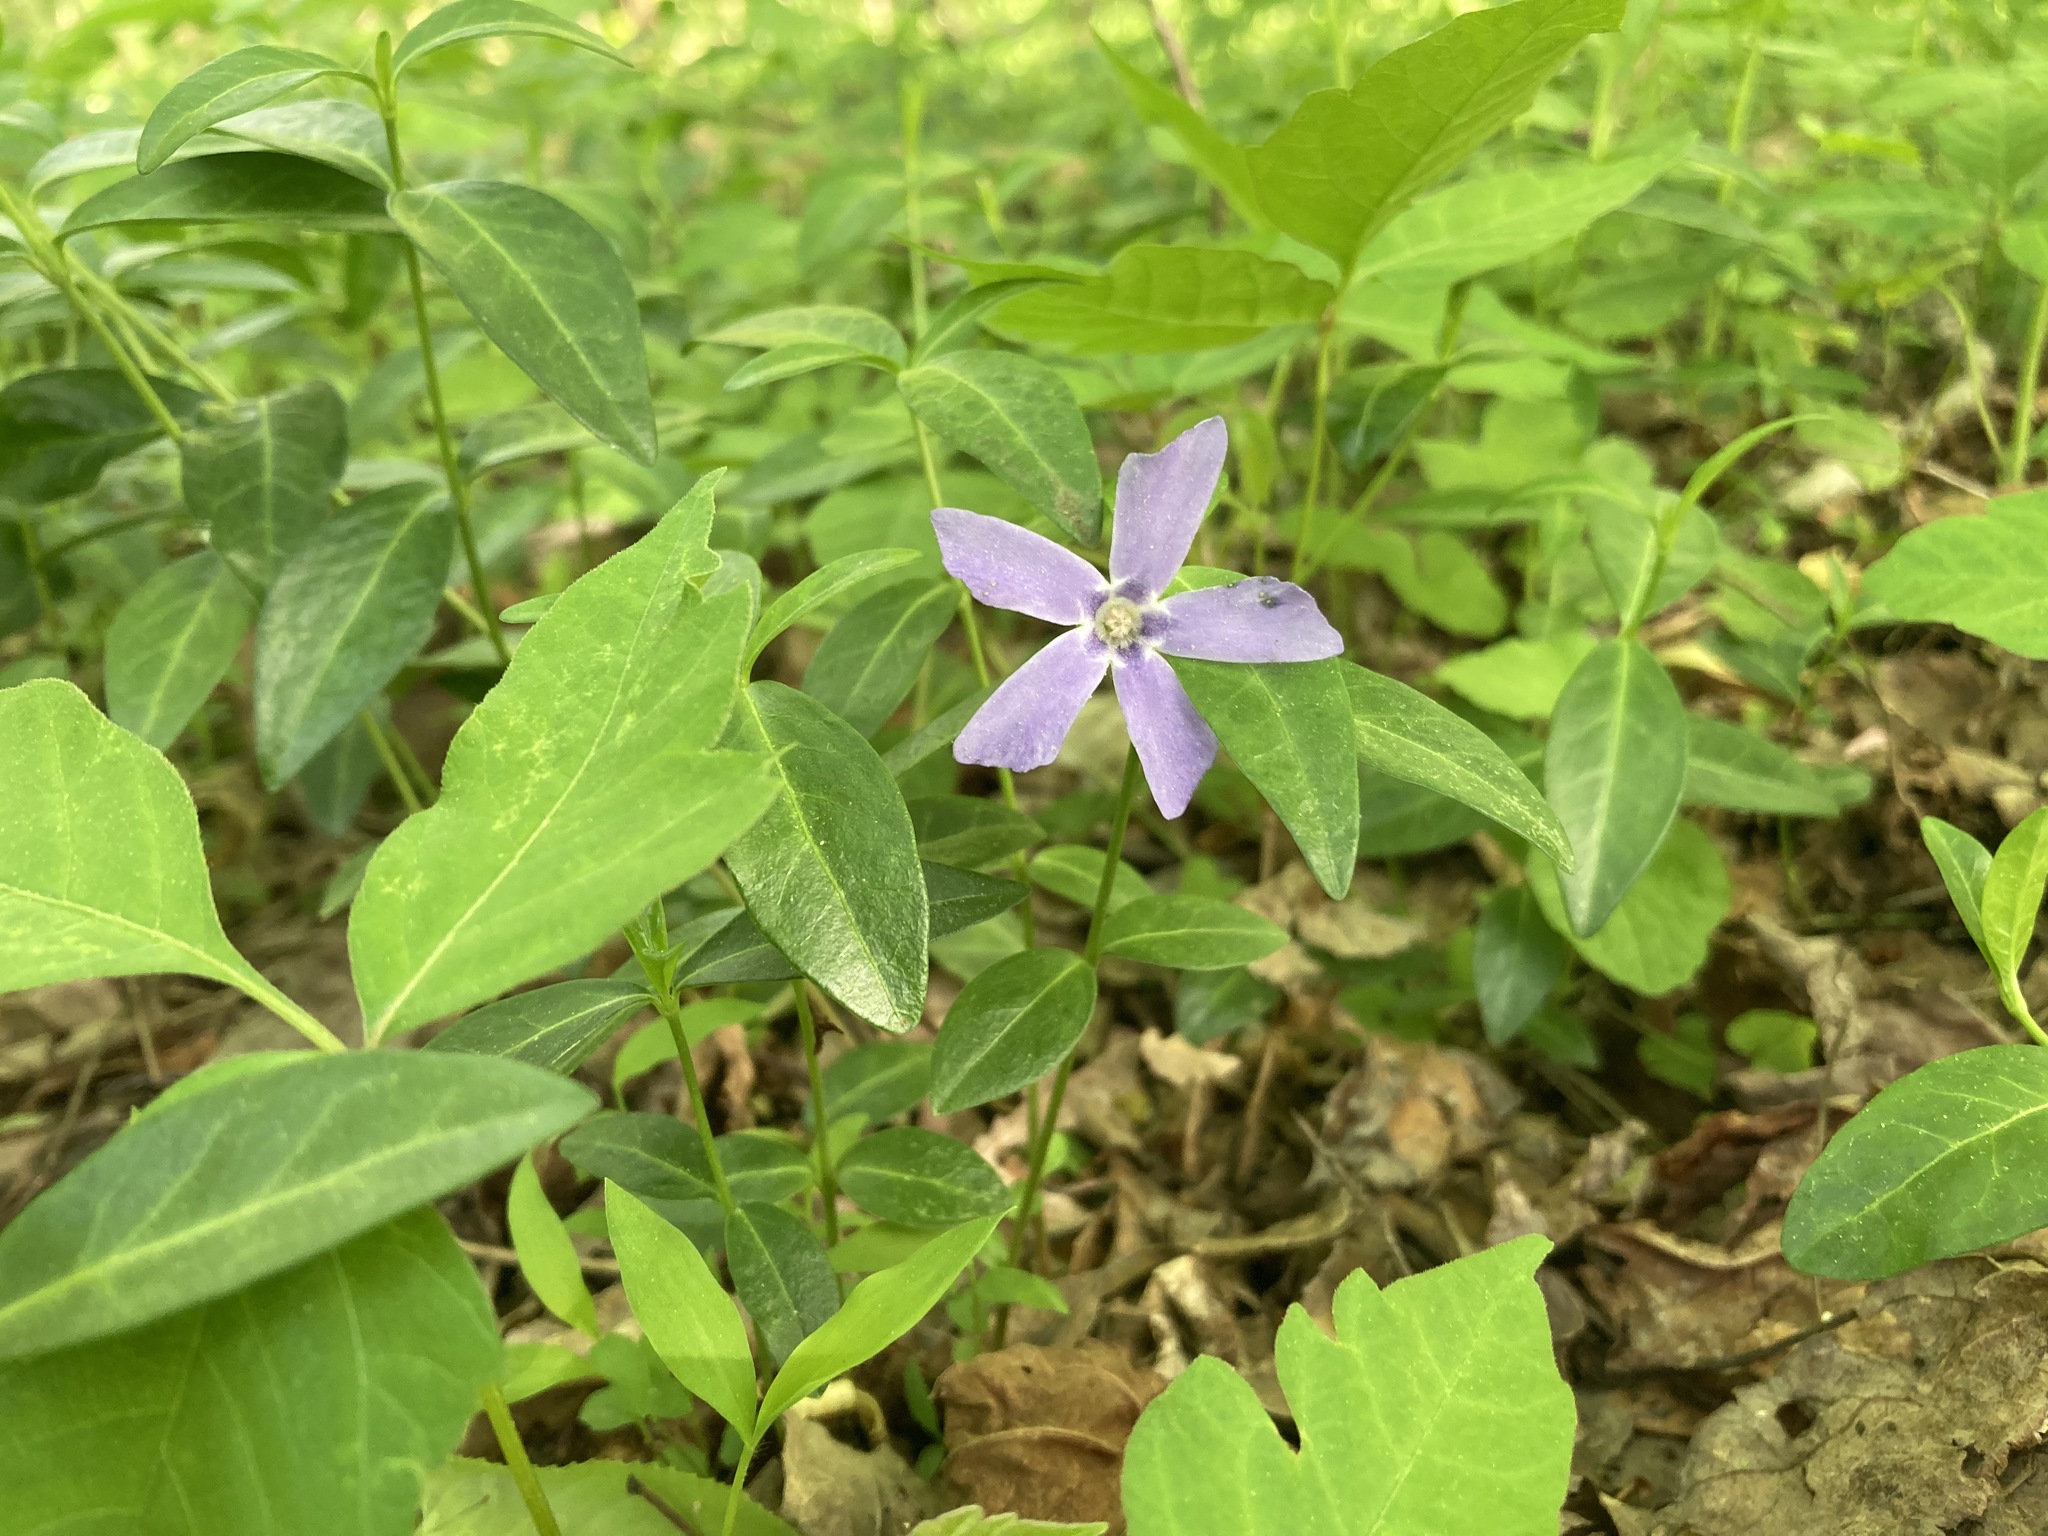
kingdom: Plantae
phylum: Tracheophyta
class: Magnoliopsida
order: Gentianales
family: Apocynaceae
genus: Vinca
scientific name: Vinca minor
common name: Lesser periwinkle
